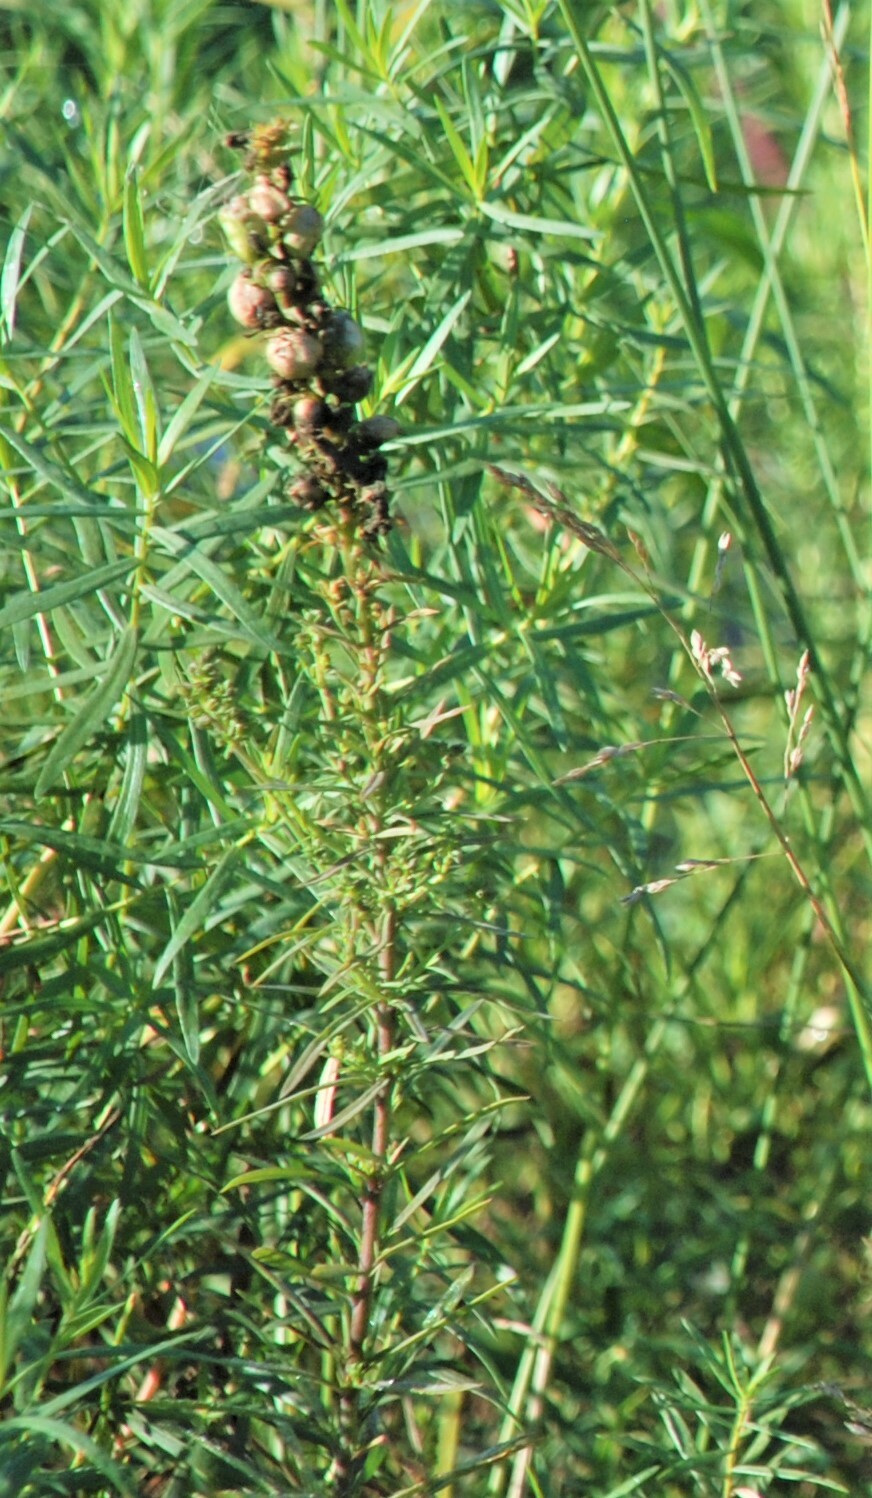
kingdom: Plantae
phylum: Tracheophyta
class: Magnoliopsida
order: Lamiales
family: Plantaginaceae
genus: Linaria
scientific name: Linaria vulgaris
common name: Butter and eggs
